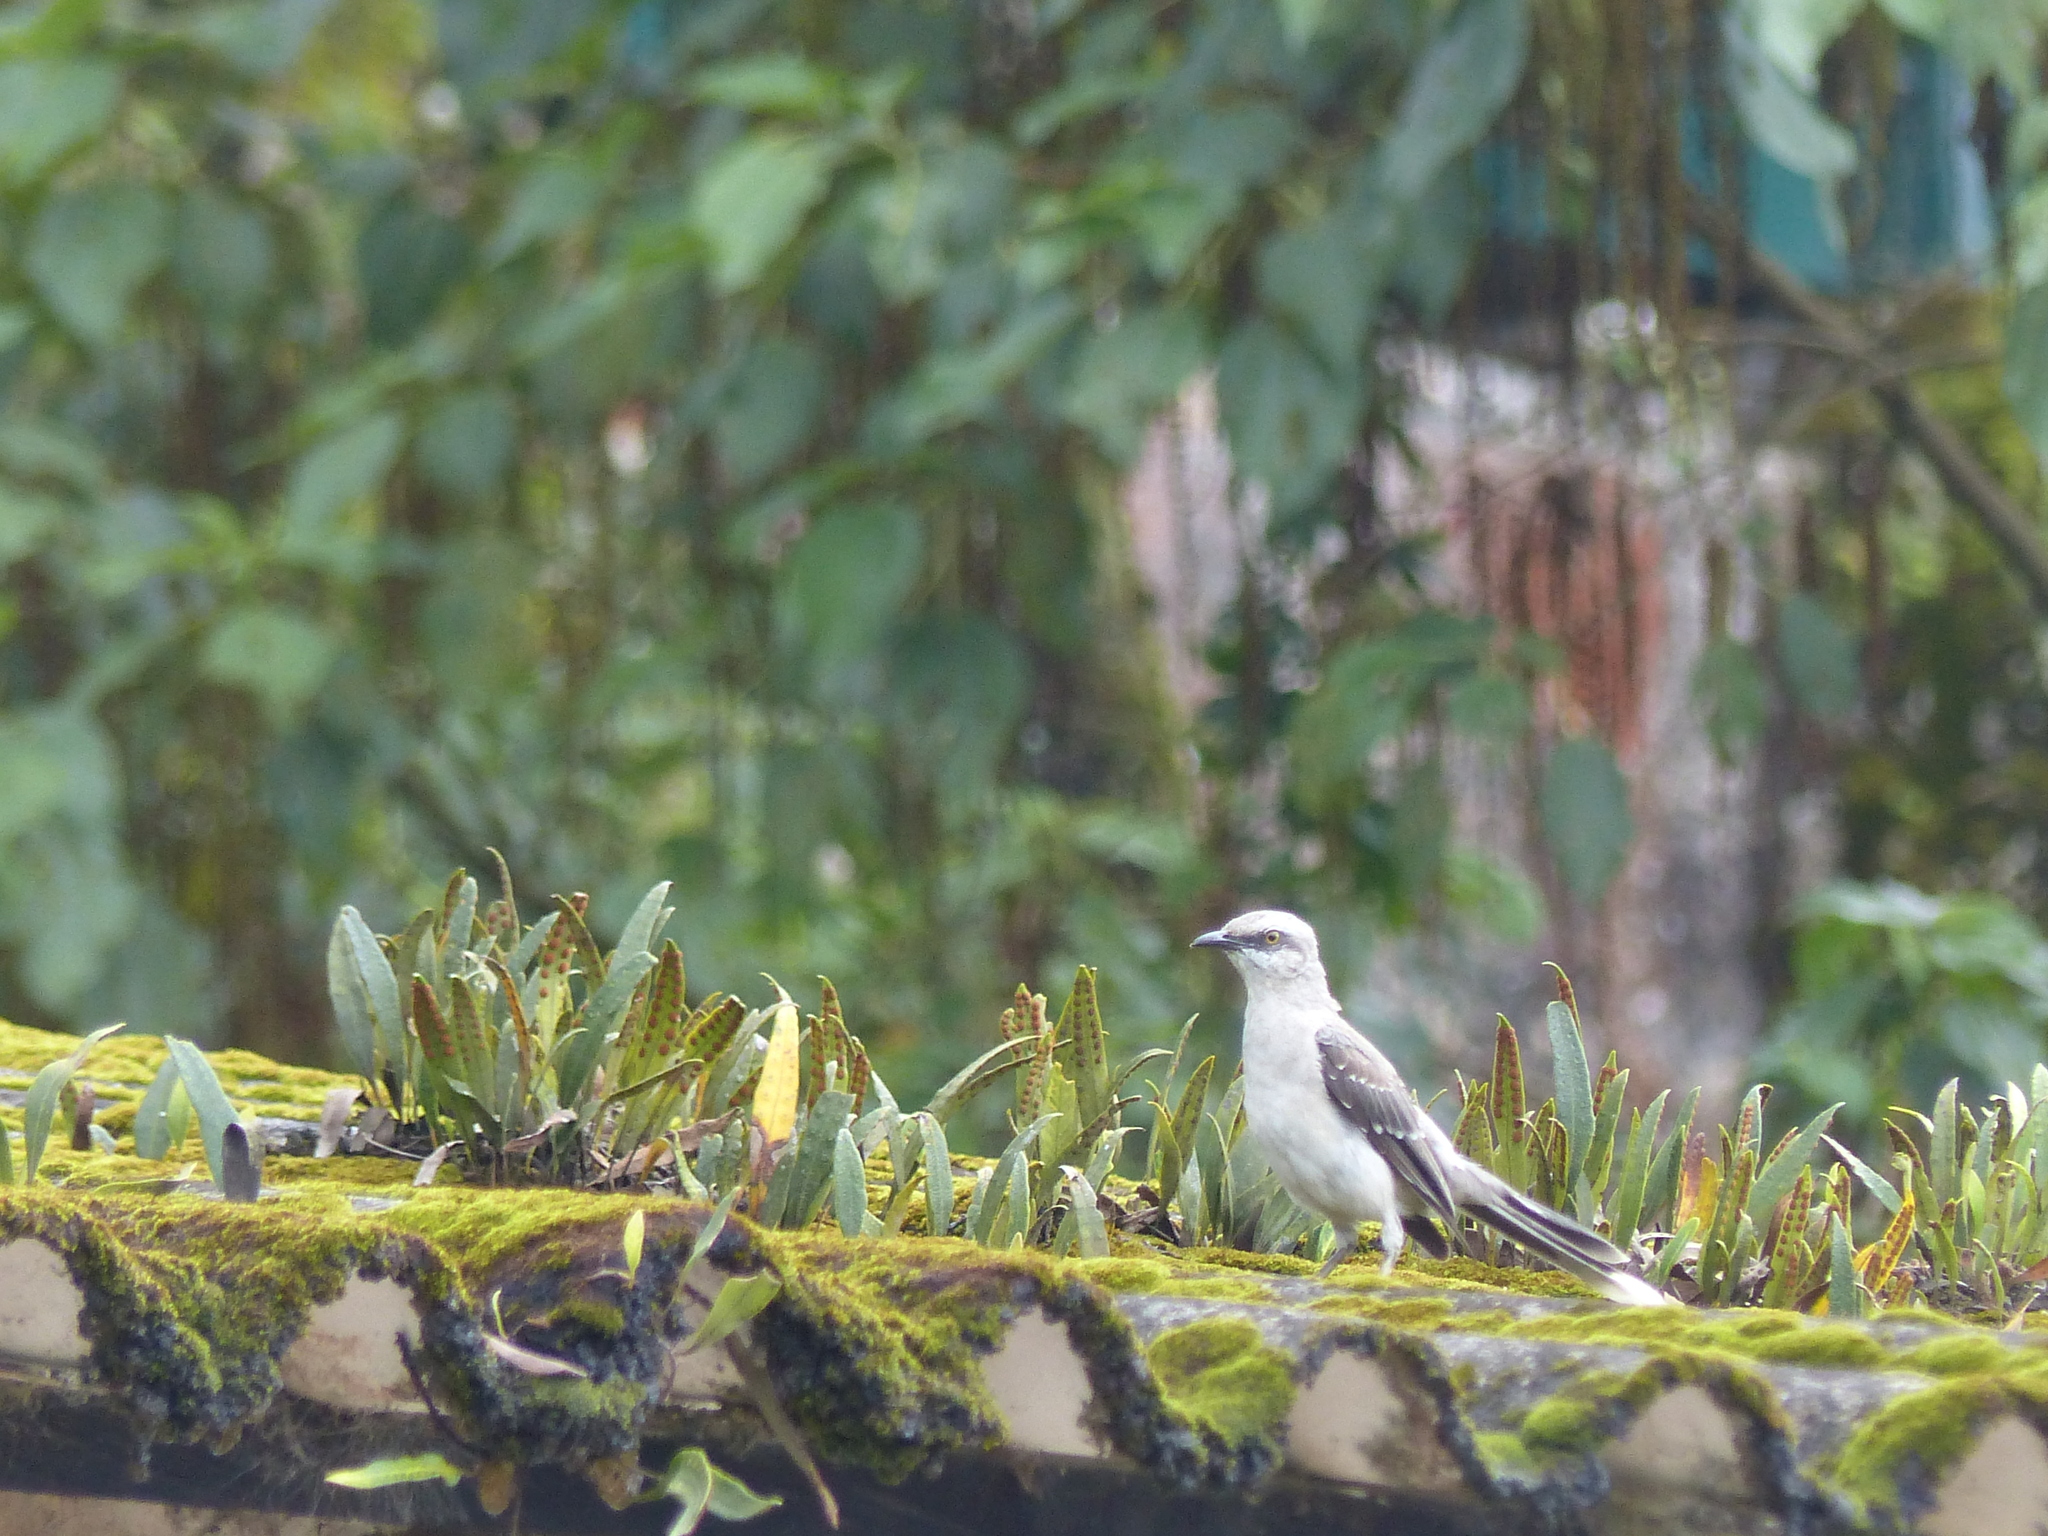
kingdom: Animalia
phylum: Chordata
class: Aves
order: Passeriformes
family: Mimidae
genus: Mimus
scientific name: Mimus gilvus
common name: Tropical mockingbird
